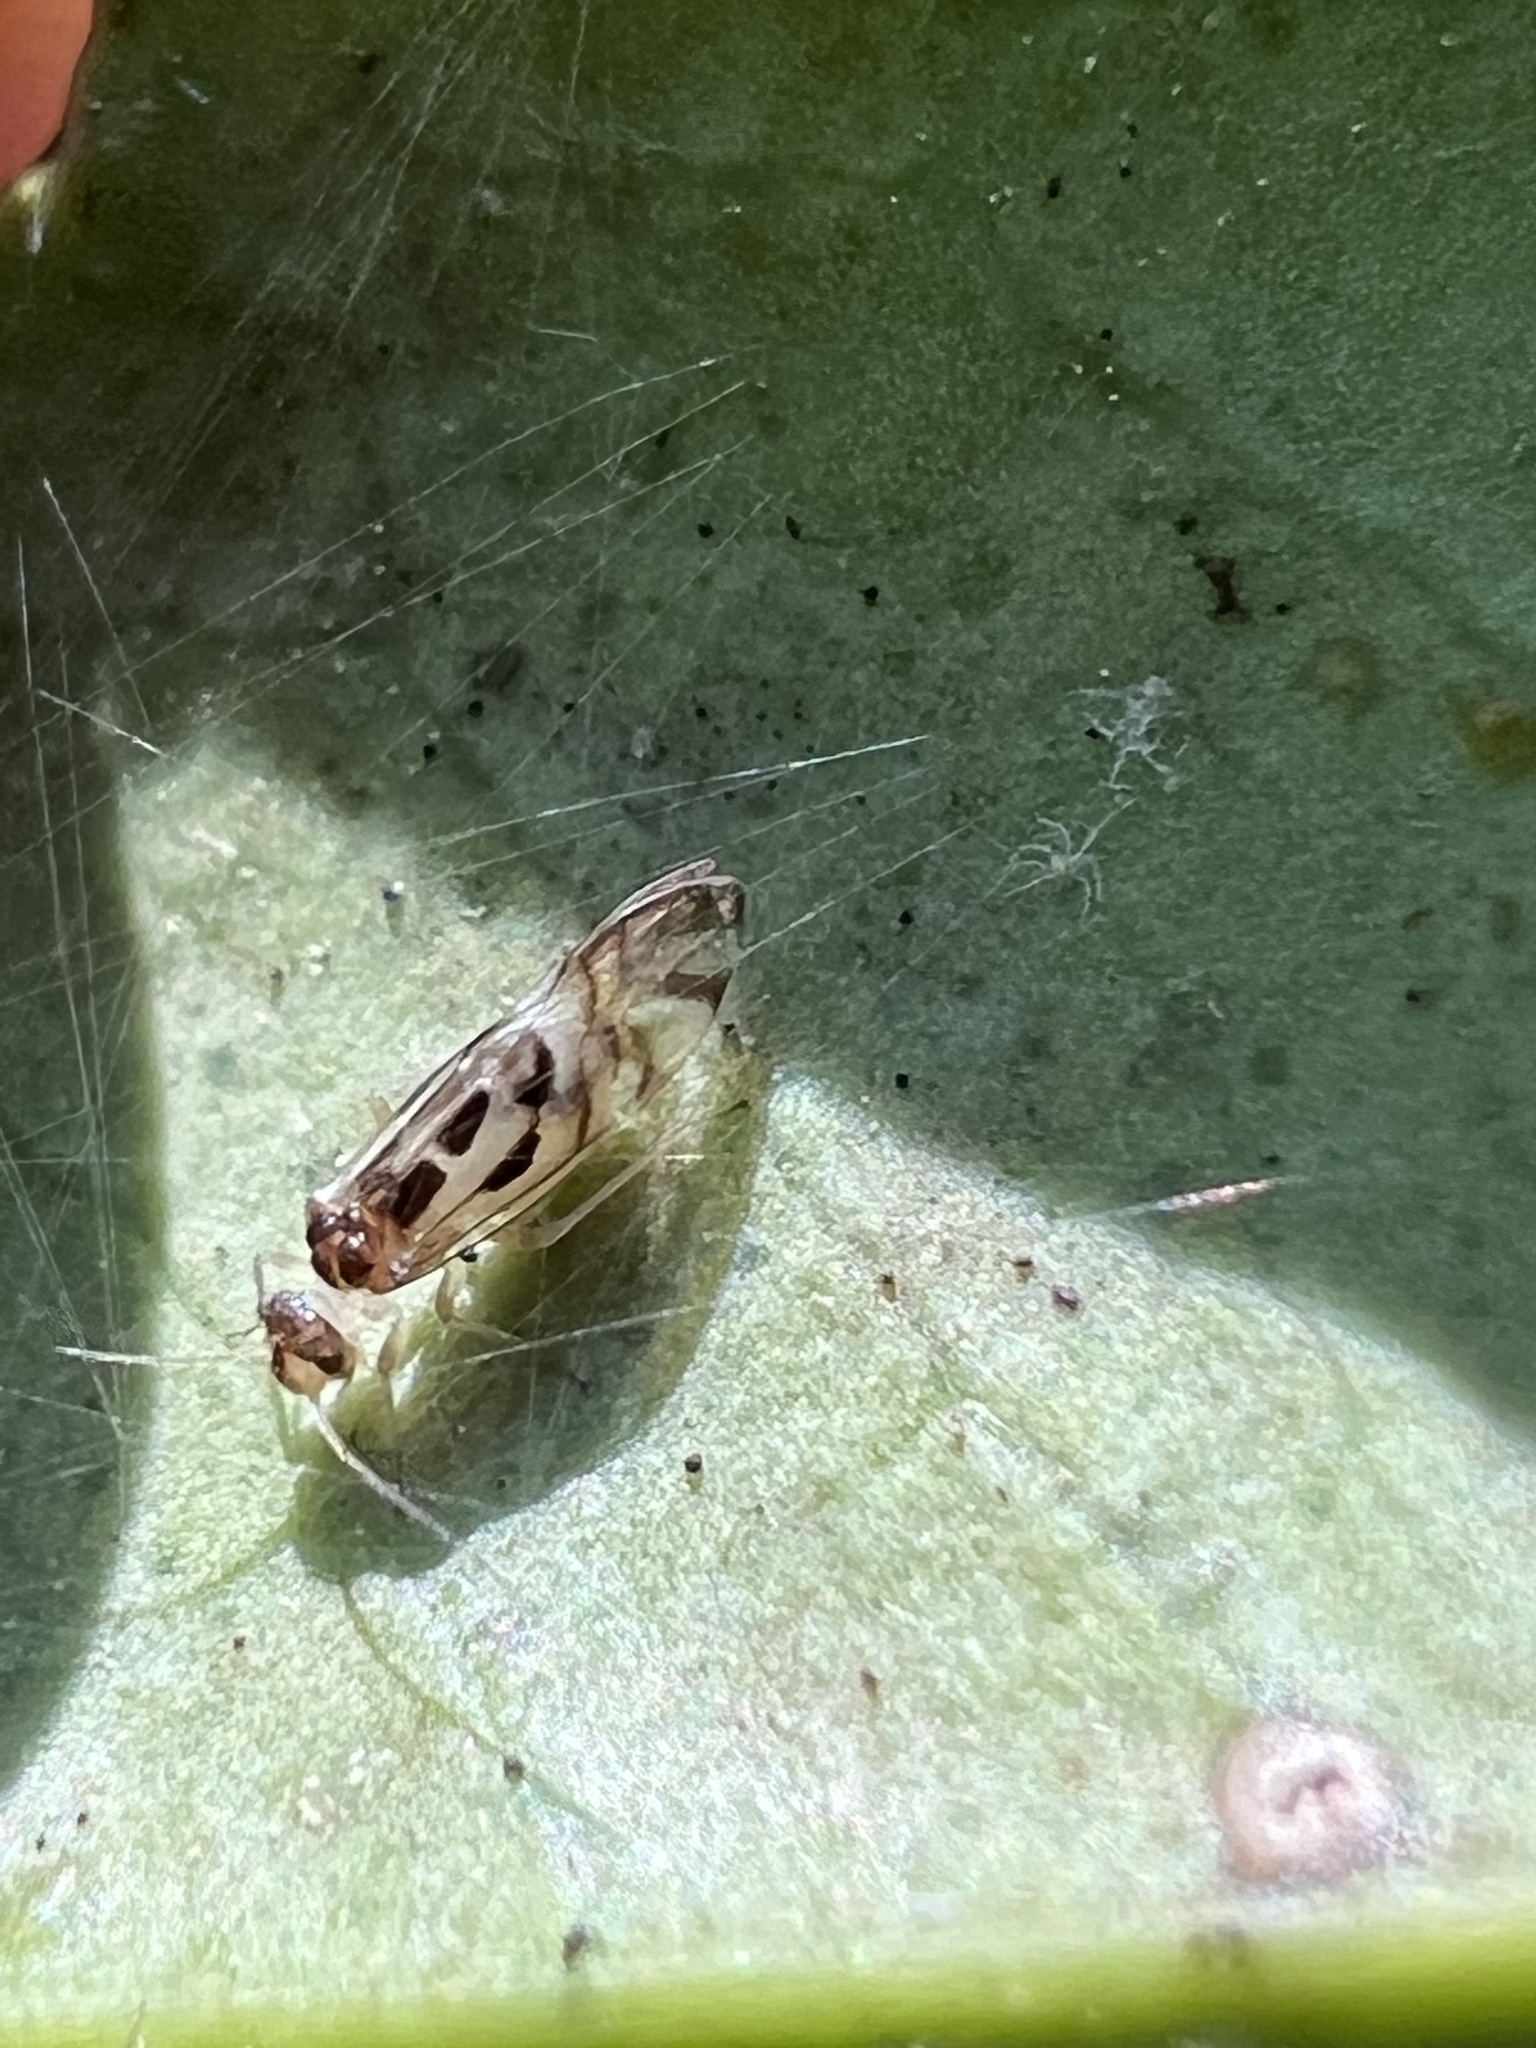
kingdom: Animalia
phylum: Arthropoda
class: Insecta
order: Psocodea
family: Stenopsocidae
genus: Graphopsocus
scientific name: Graphopsocus cruciatus
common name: Lizard bark louse
